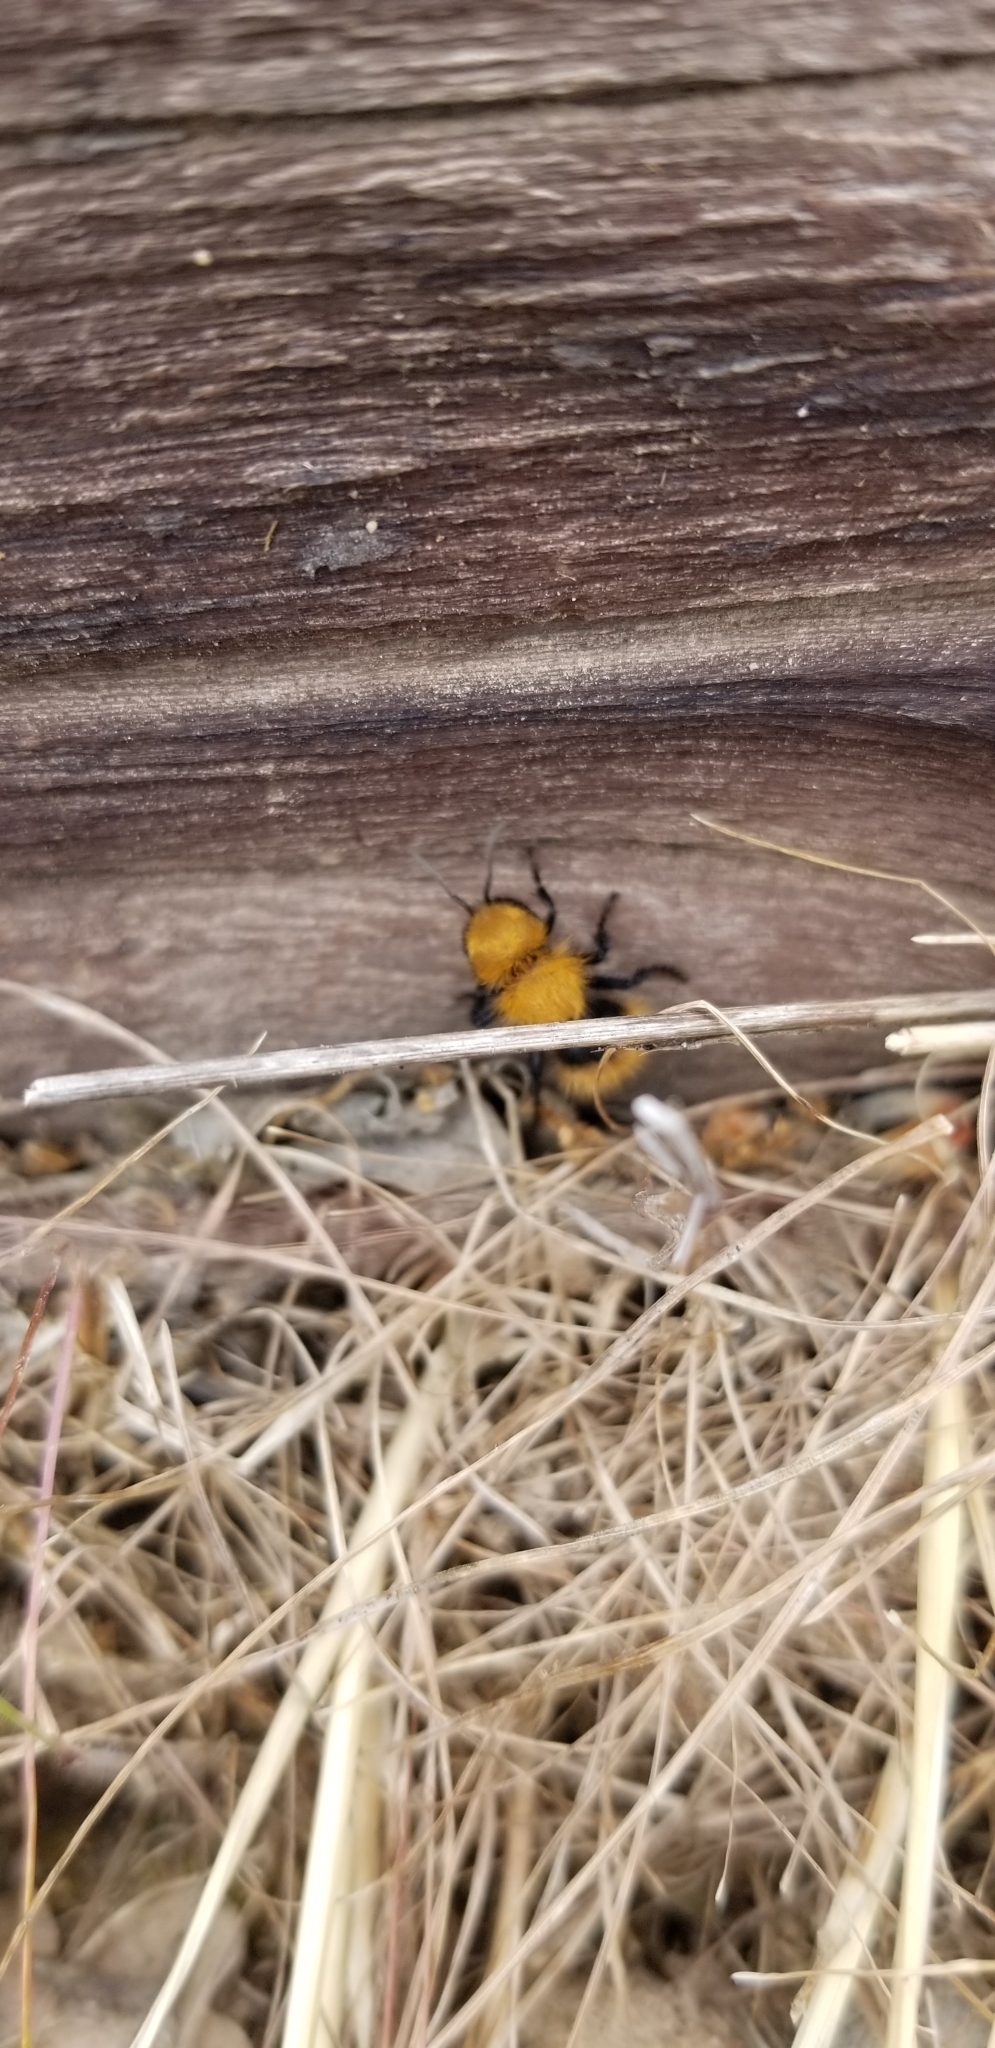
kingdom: Animalia
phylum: Arthropoda
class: Insecta
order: Hymenoptera
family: Mutillidae
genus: Dasymutilla
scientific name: Dasymutilla
